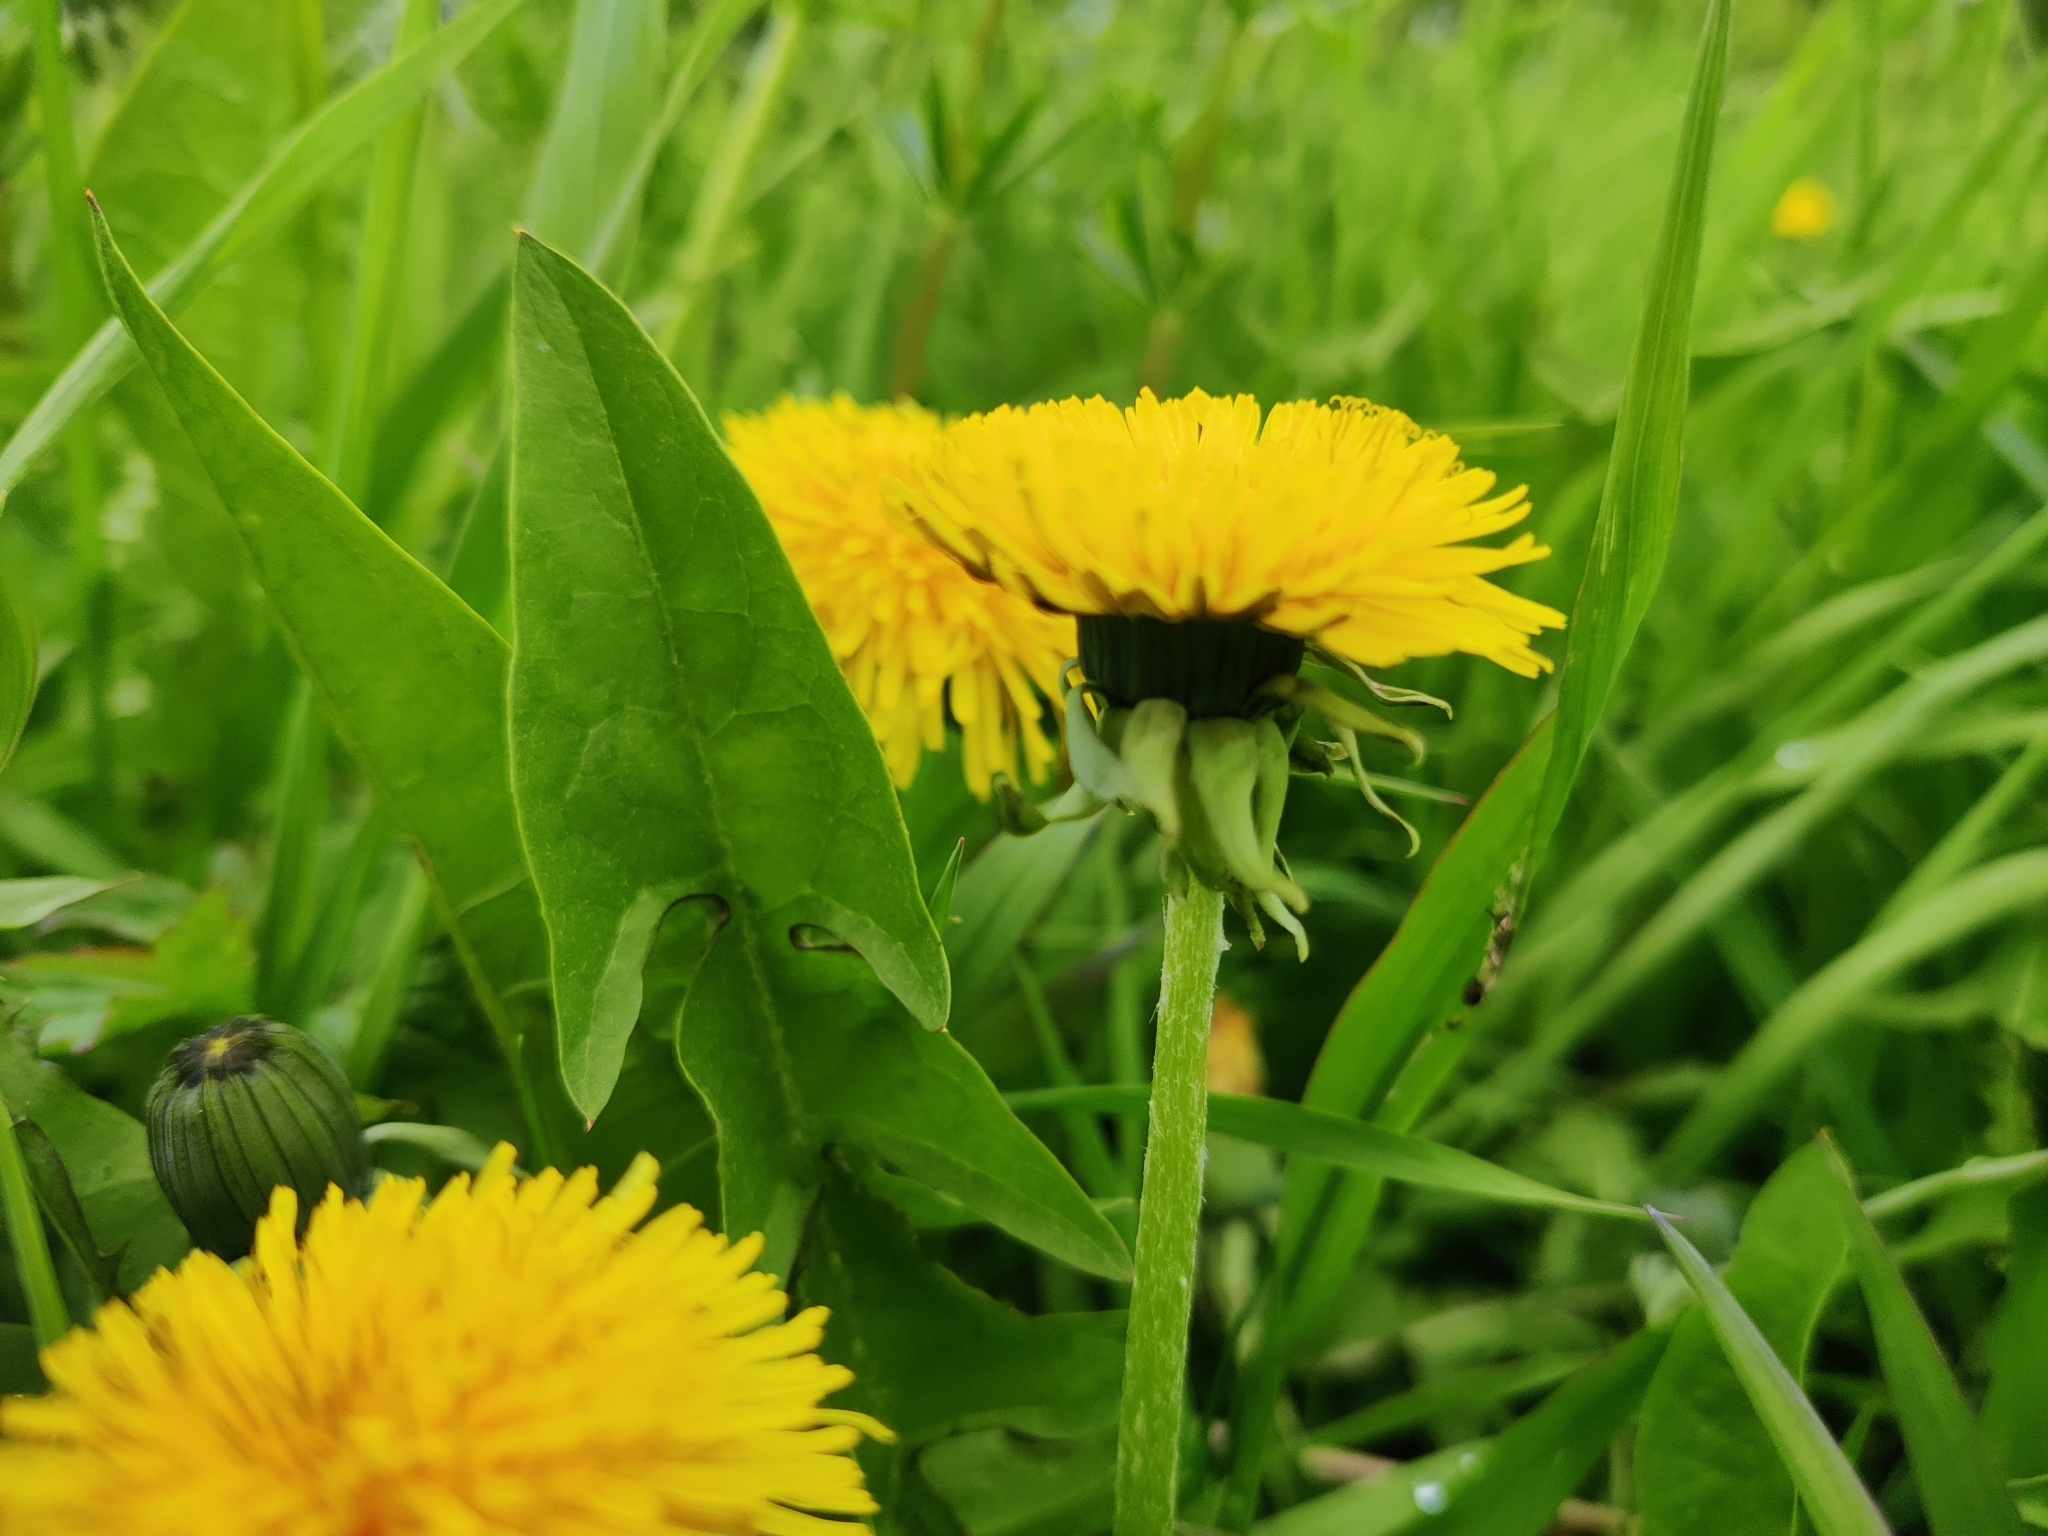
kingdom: Plantae
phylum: Tracheophyta
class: Magnoliopsida
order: Asterales
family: Asteraceae
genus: Taraxacum
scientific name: Taraxacum officinale
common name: Common dandelion
